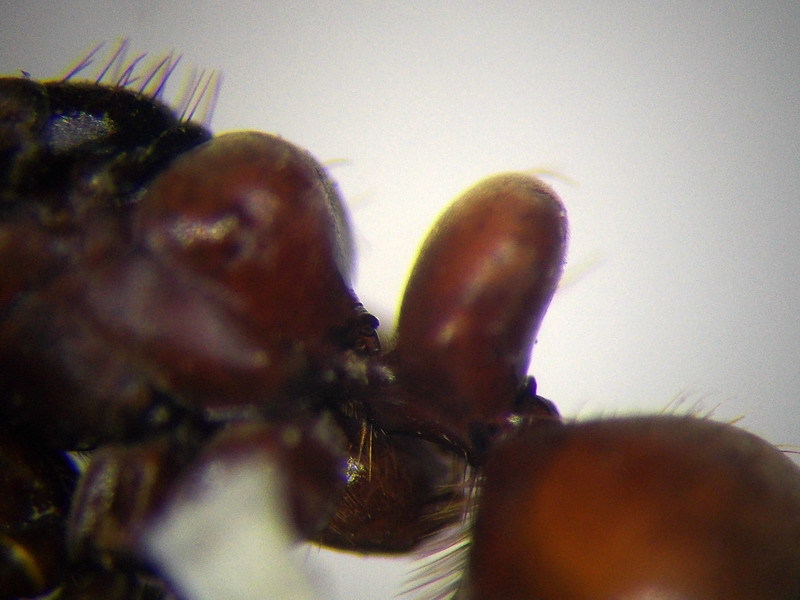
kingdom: Animalia
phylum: Arthropoda
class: Insecta
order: Hymenoptera
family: Formicidae
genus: Polyergus
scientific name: Polyergus rufescens
